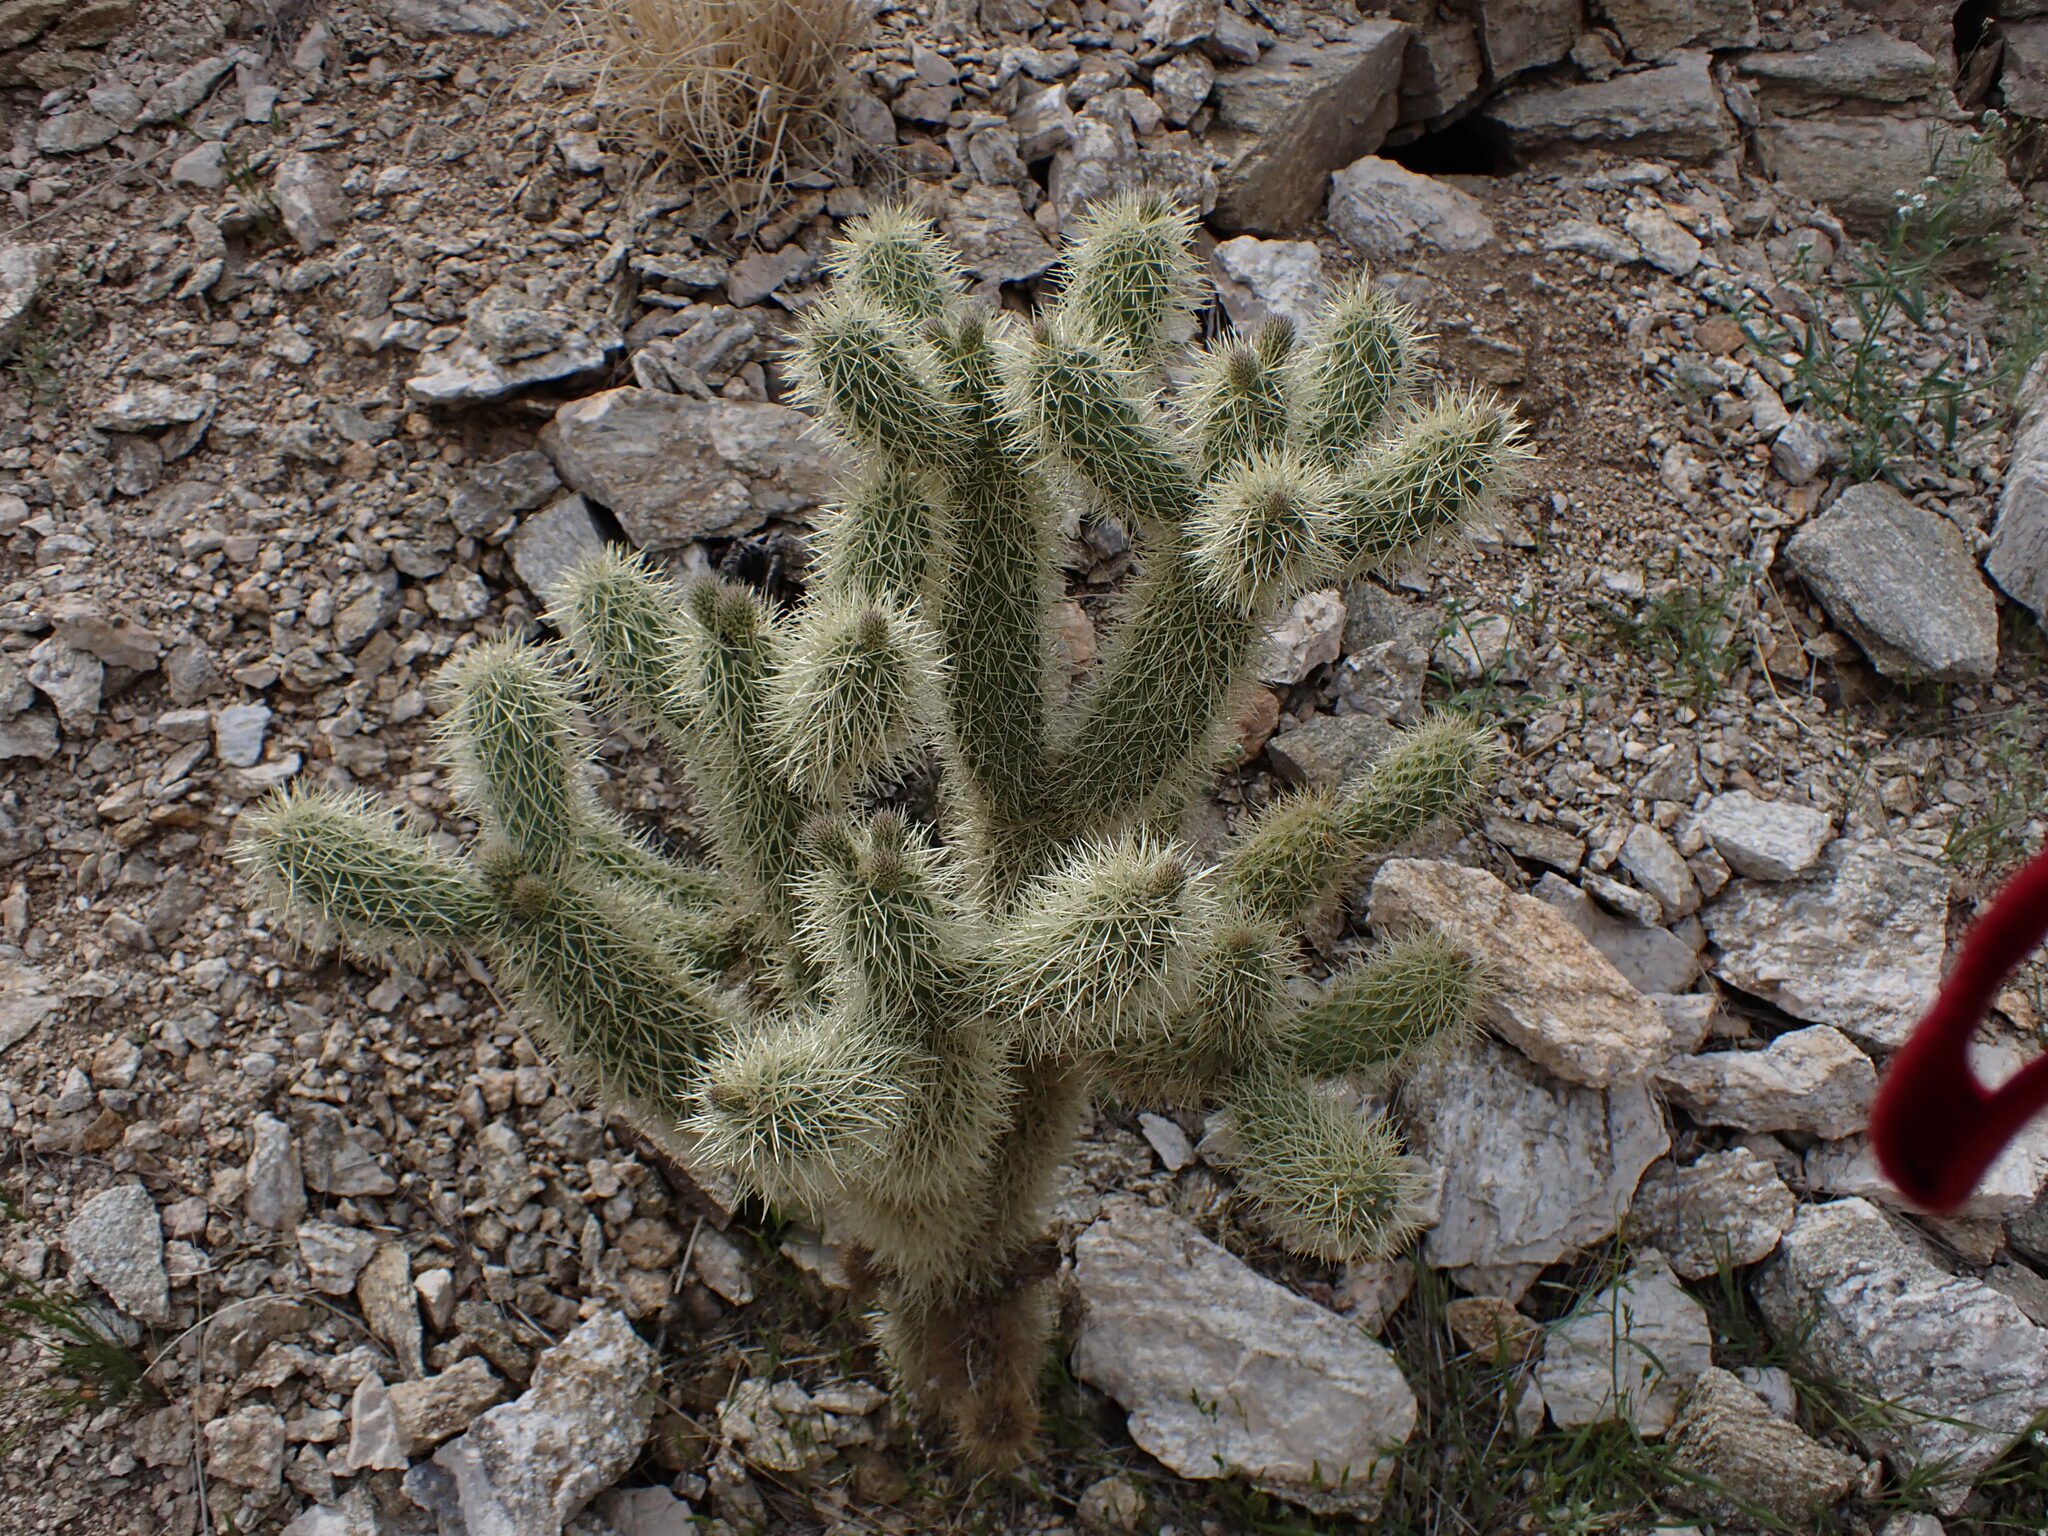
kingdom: Plantae
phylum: Tracheophyta
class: Magnoliopsida
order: Caryophyllales
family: Cactaceae
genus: Cylindropuntia
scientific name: Cylindropuntia fosbergii
